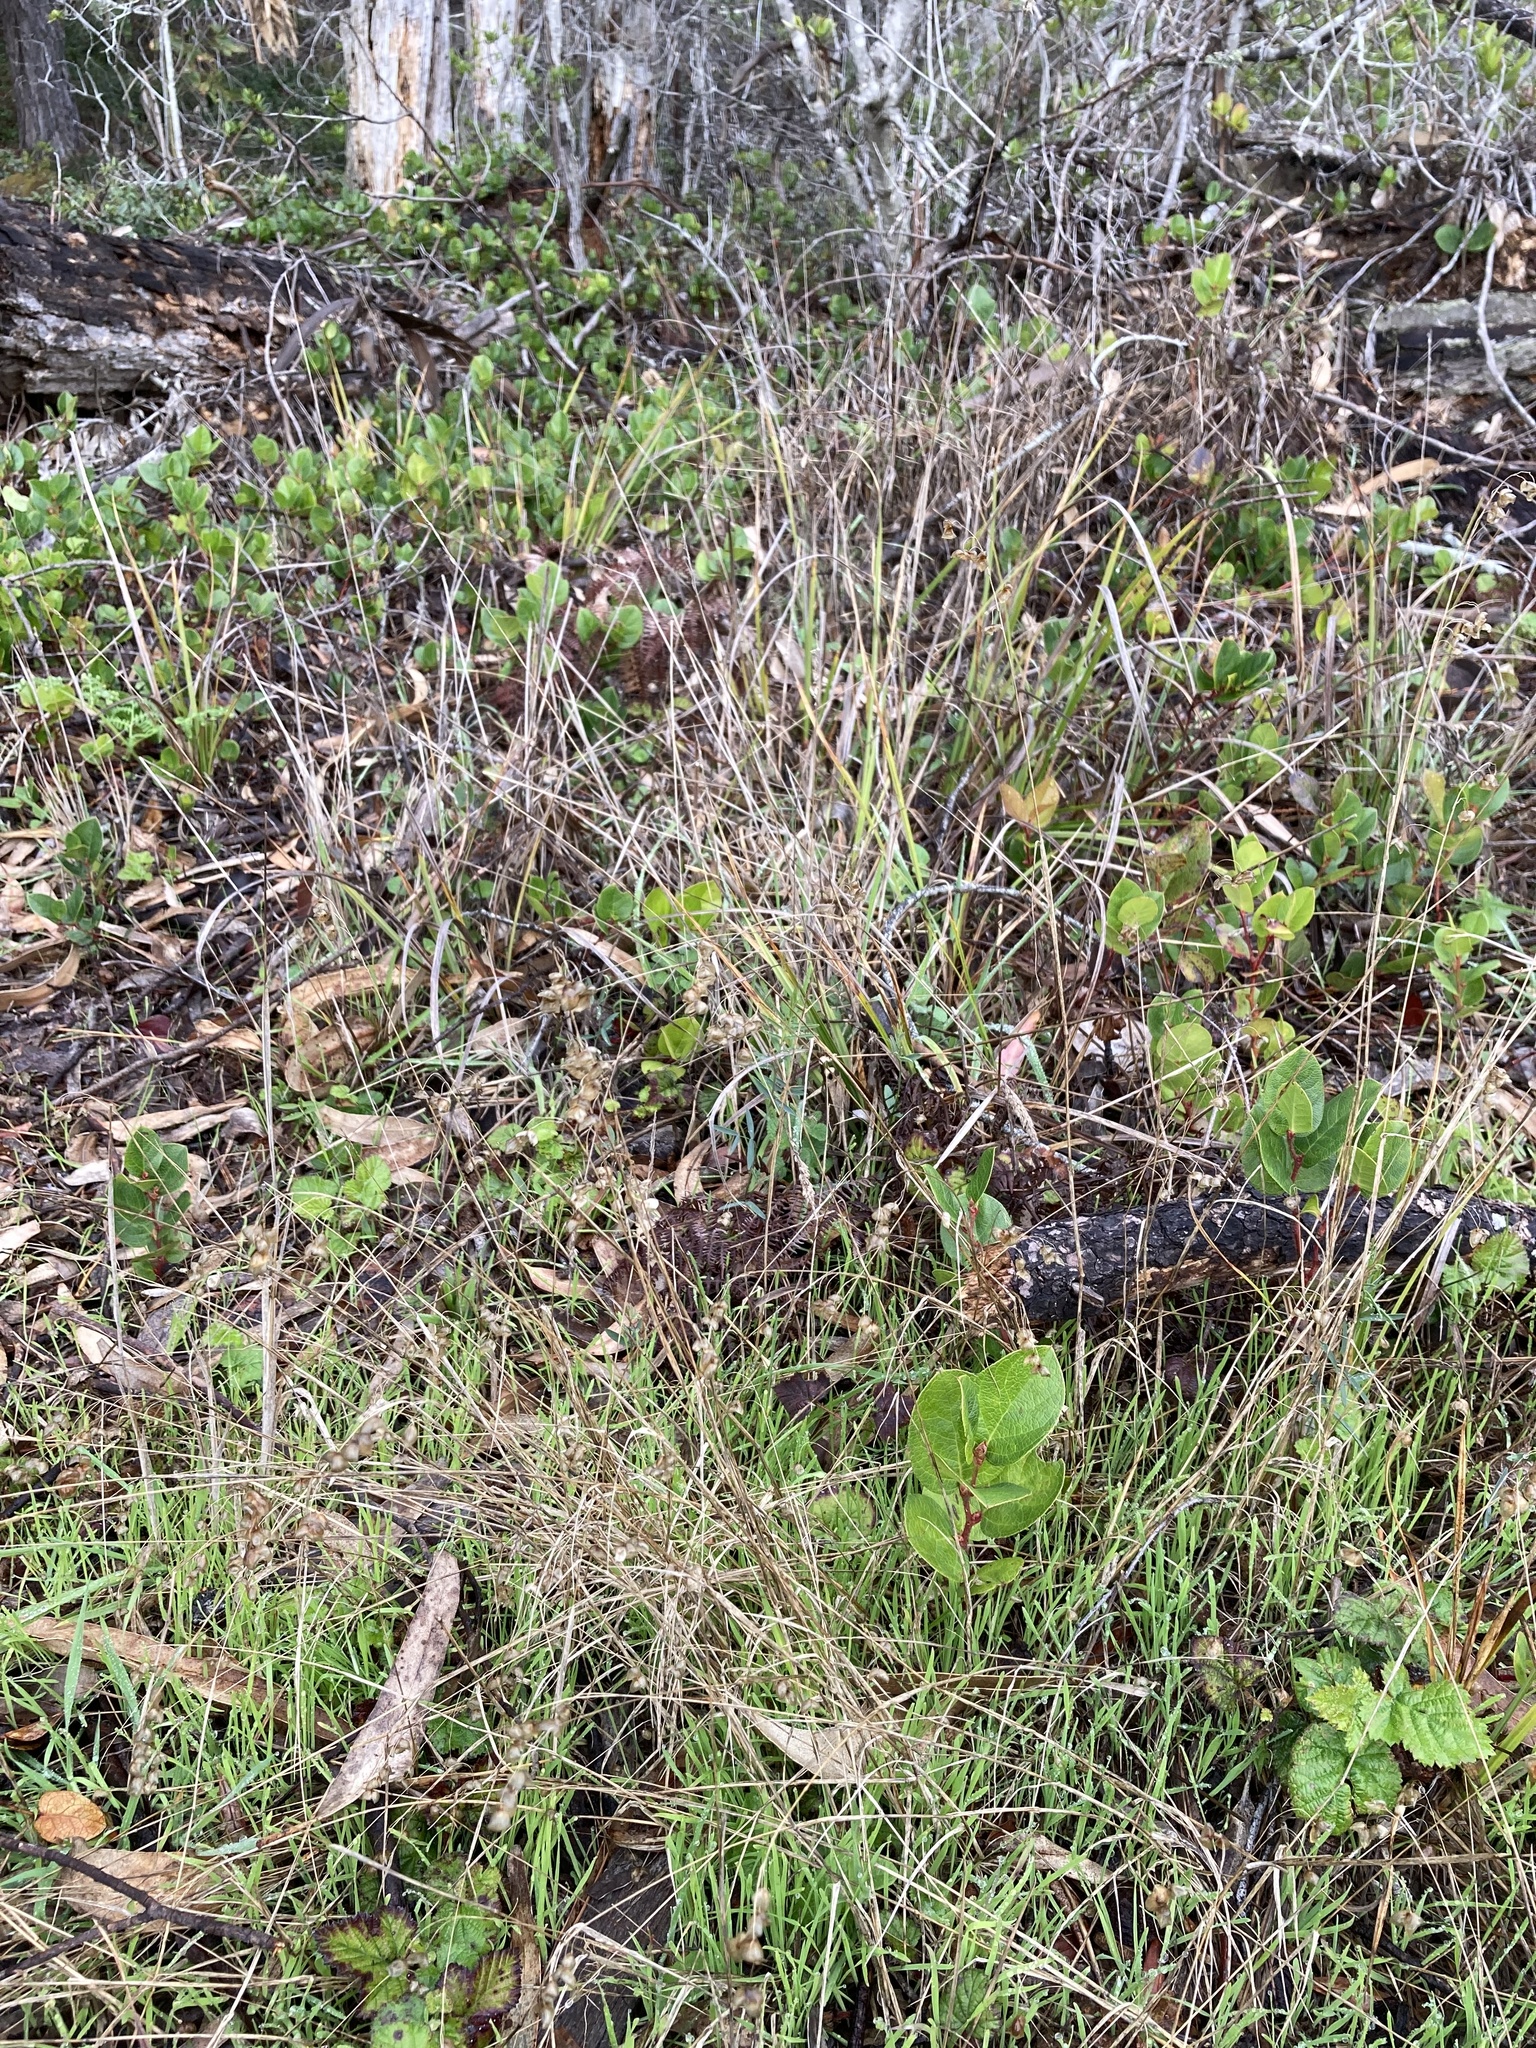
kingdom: Plantae
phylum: Tracheophyta
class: Liliopsida
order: Poales
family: Poaceae
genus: Briza
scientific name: Briza maxima
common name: Big quakinggrass
